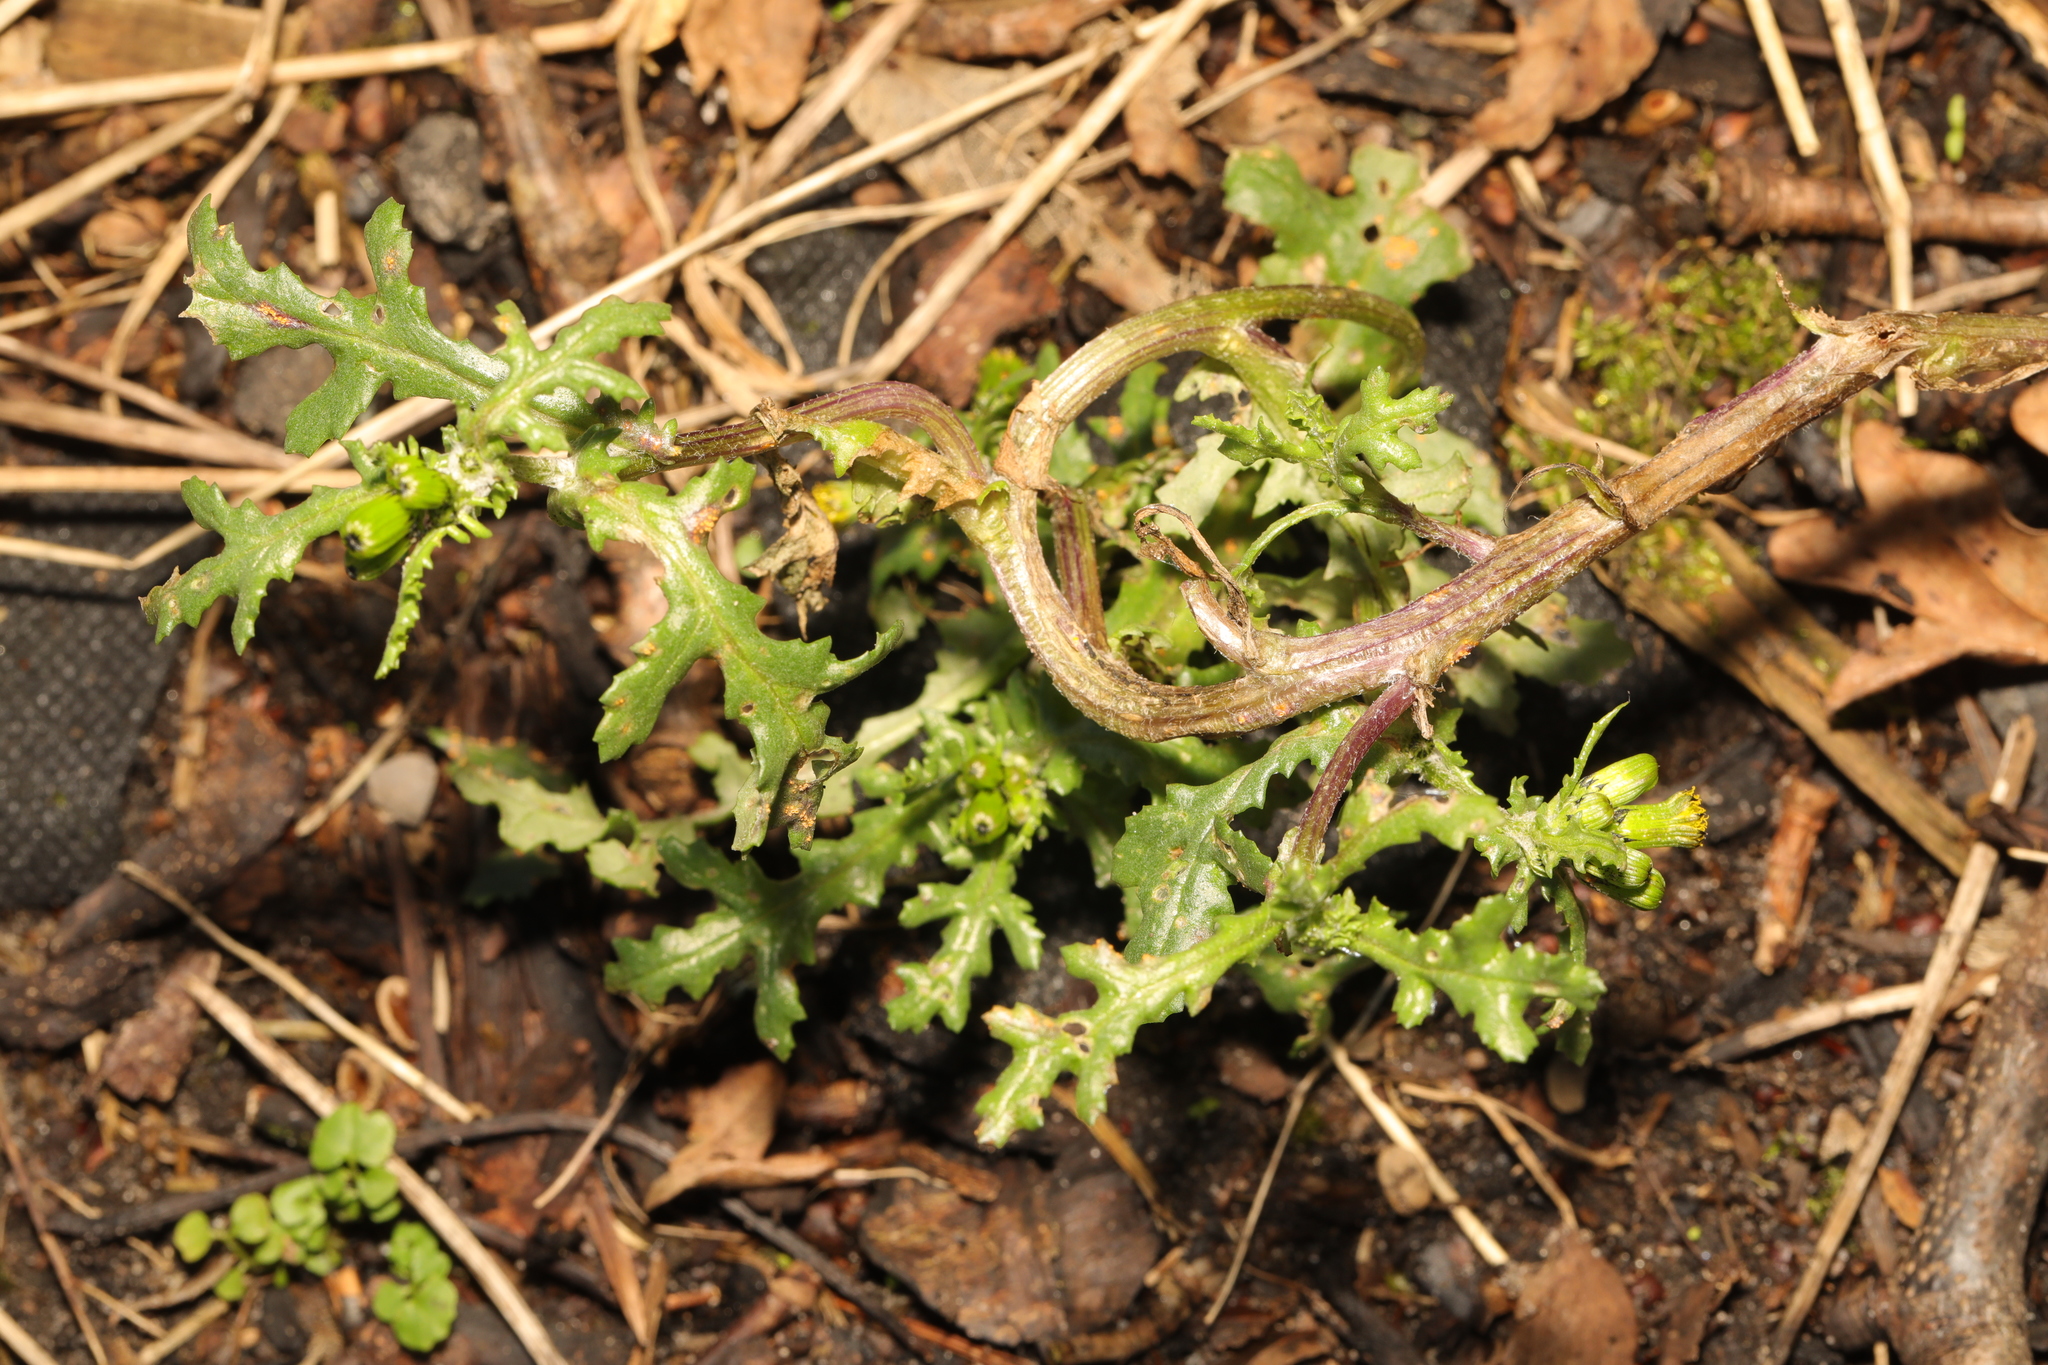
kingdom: Plantae
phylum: Tracheophyta
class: Magnoliopsida
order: Asterales
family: Asteraceae
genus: Senecio
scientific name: Senecio vulgaris
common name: Old-man-in-the-spring
